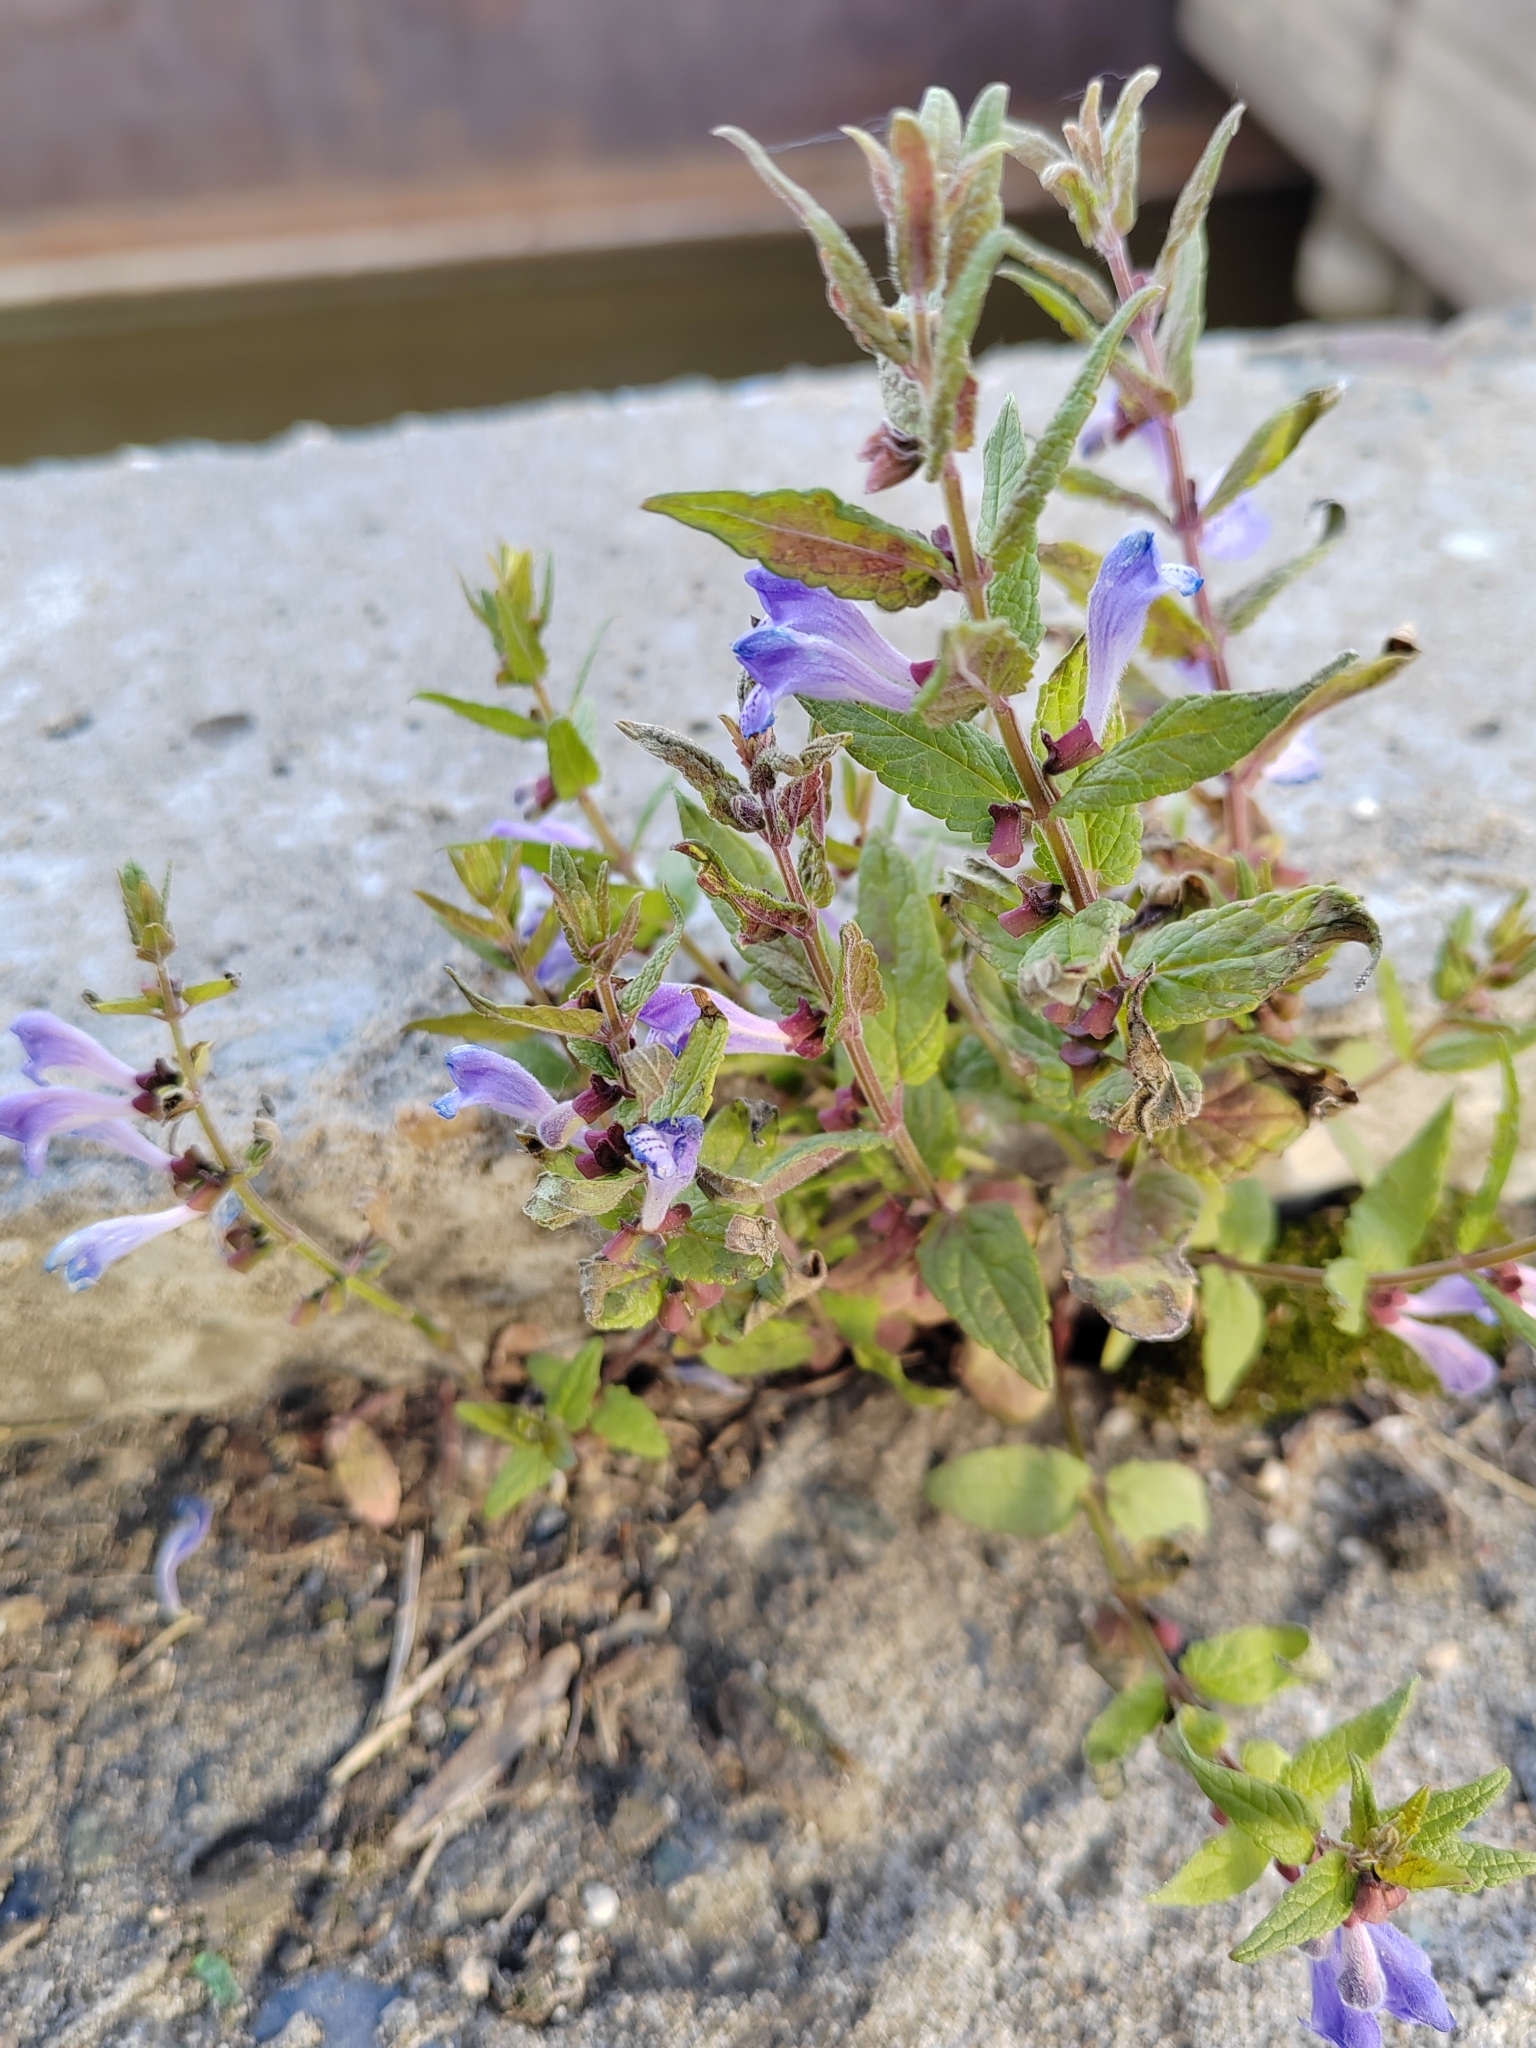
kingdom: Plantae
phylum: Tracheophyta
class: Magnoliopsida
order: Lamiales
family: Lamiaceae
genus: Scutellaria
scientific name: Scutellaria galericulata
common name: Skullcap
